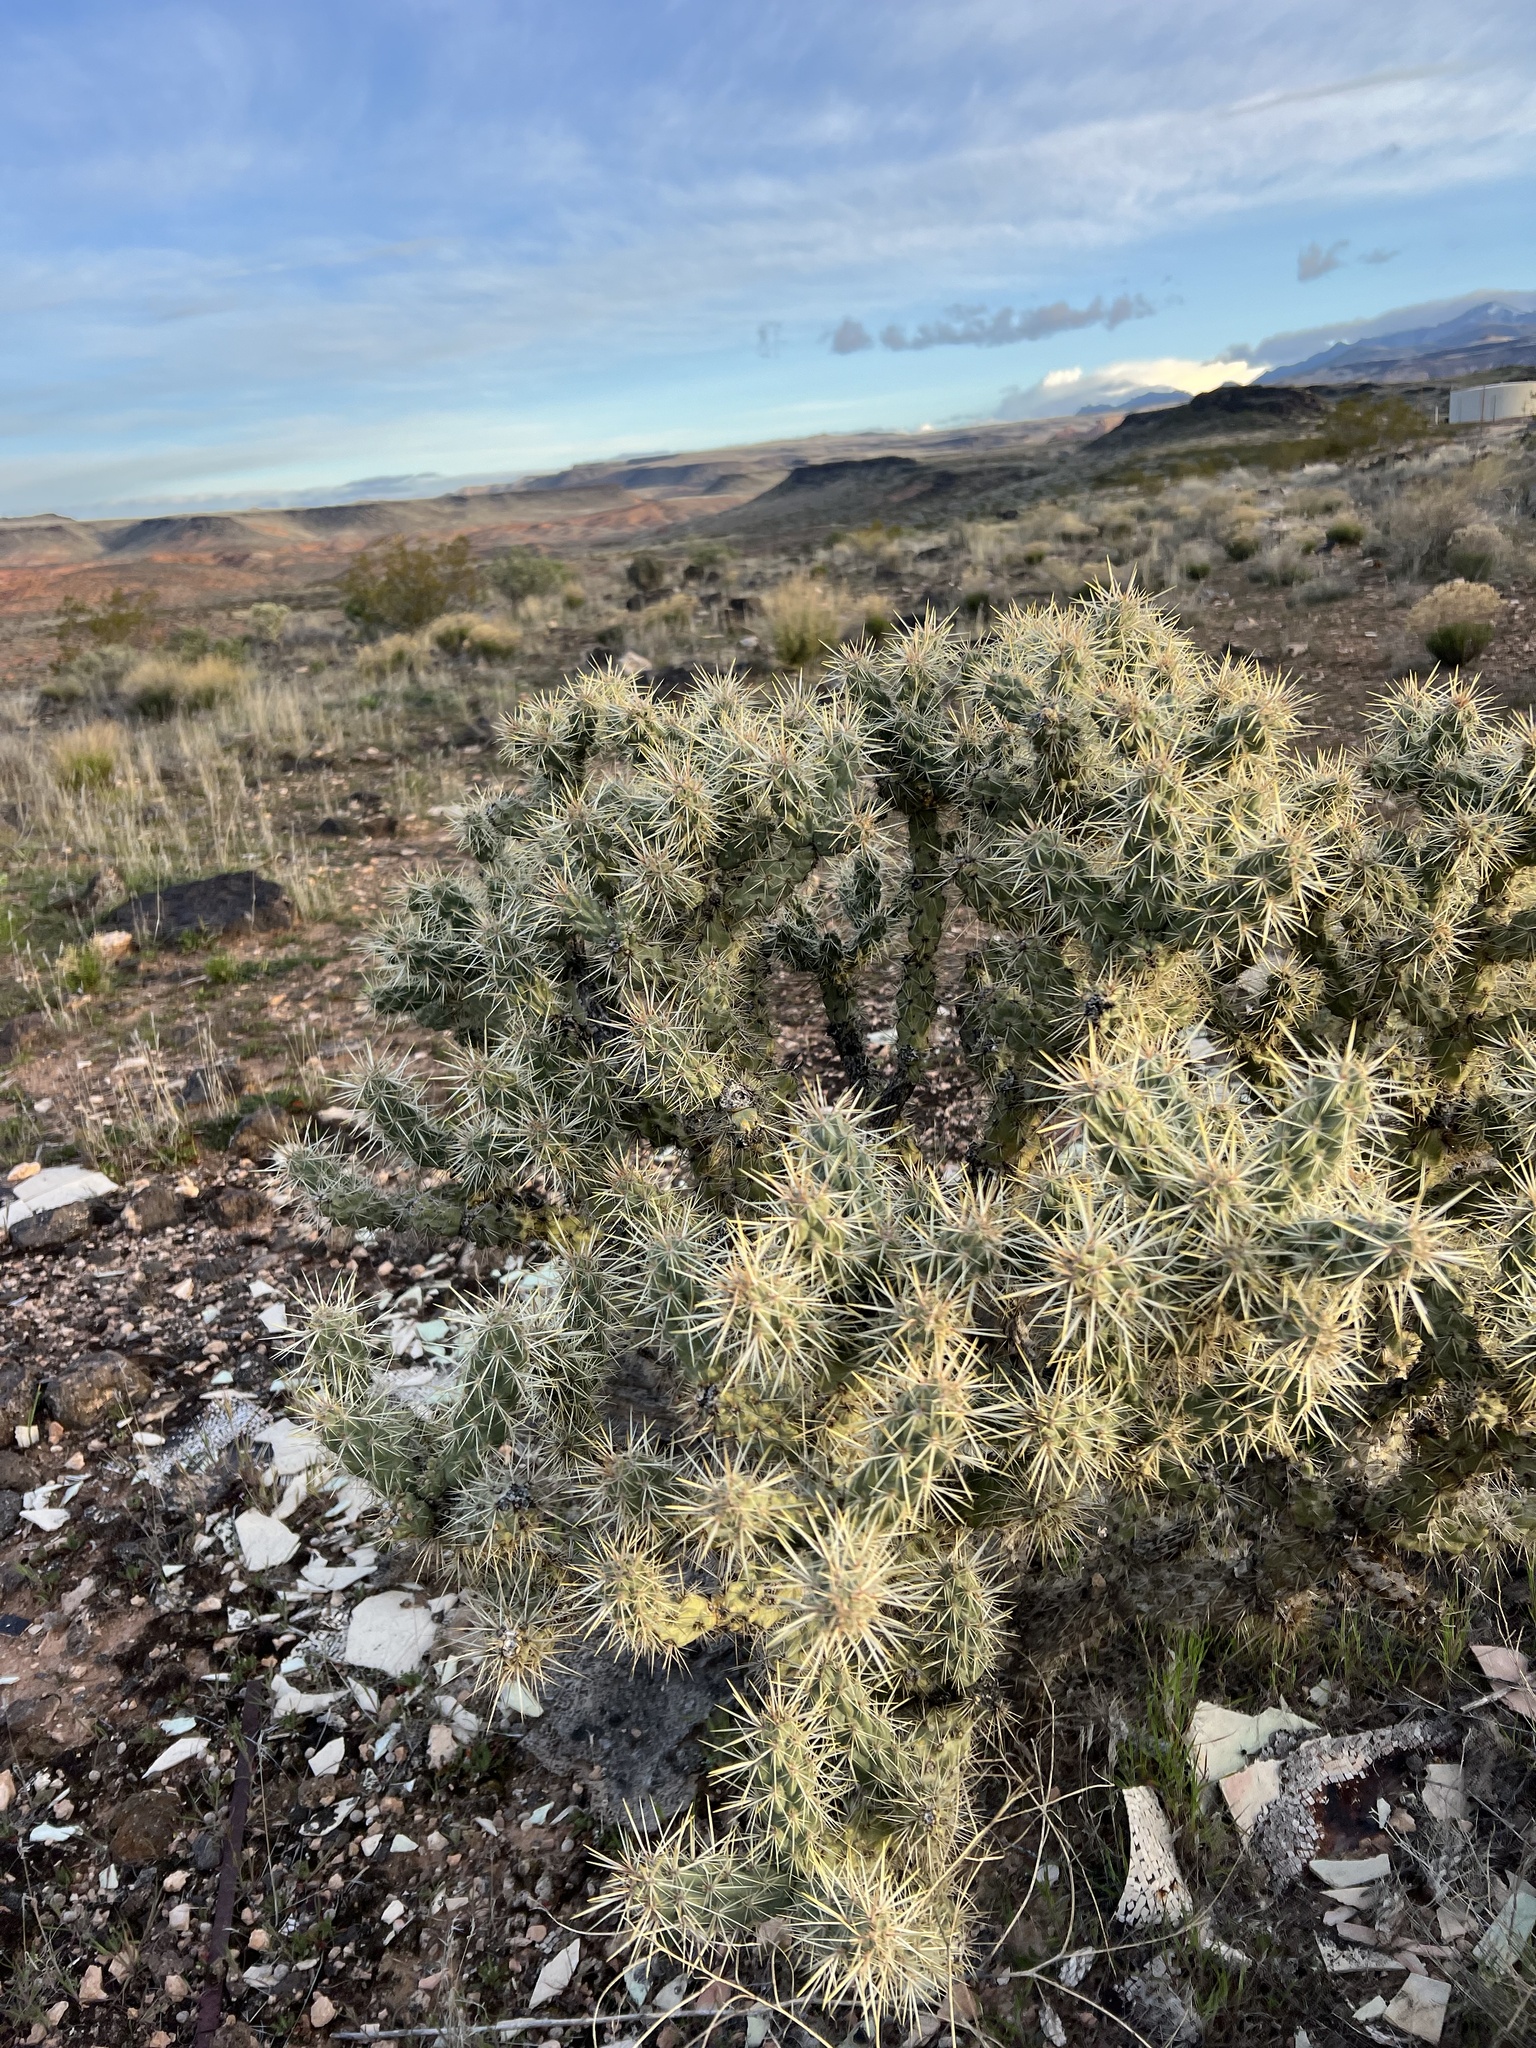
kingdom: Plantae
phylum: Tracheophyta
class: Magnoliopsida
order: Caryophyllales
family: Cactaceae
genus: Cylindropuntia
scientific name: Cylindropuntia echinocarpa
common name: Ground cholla
